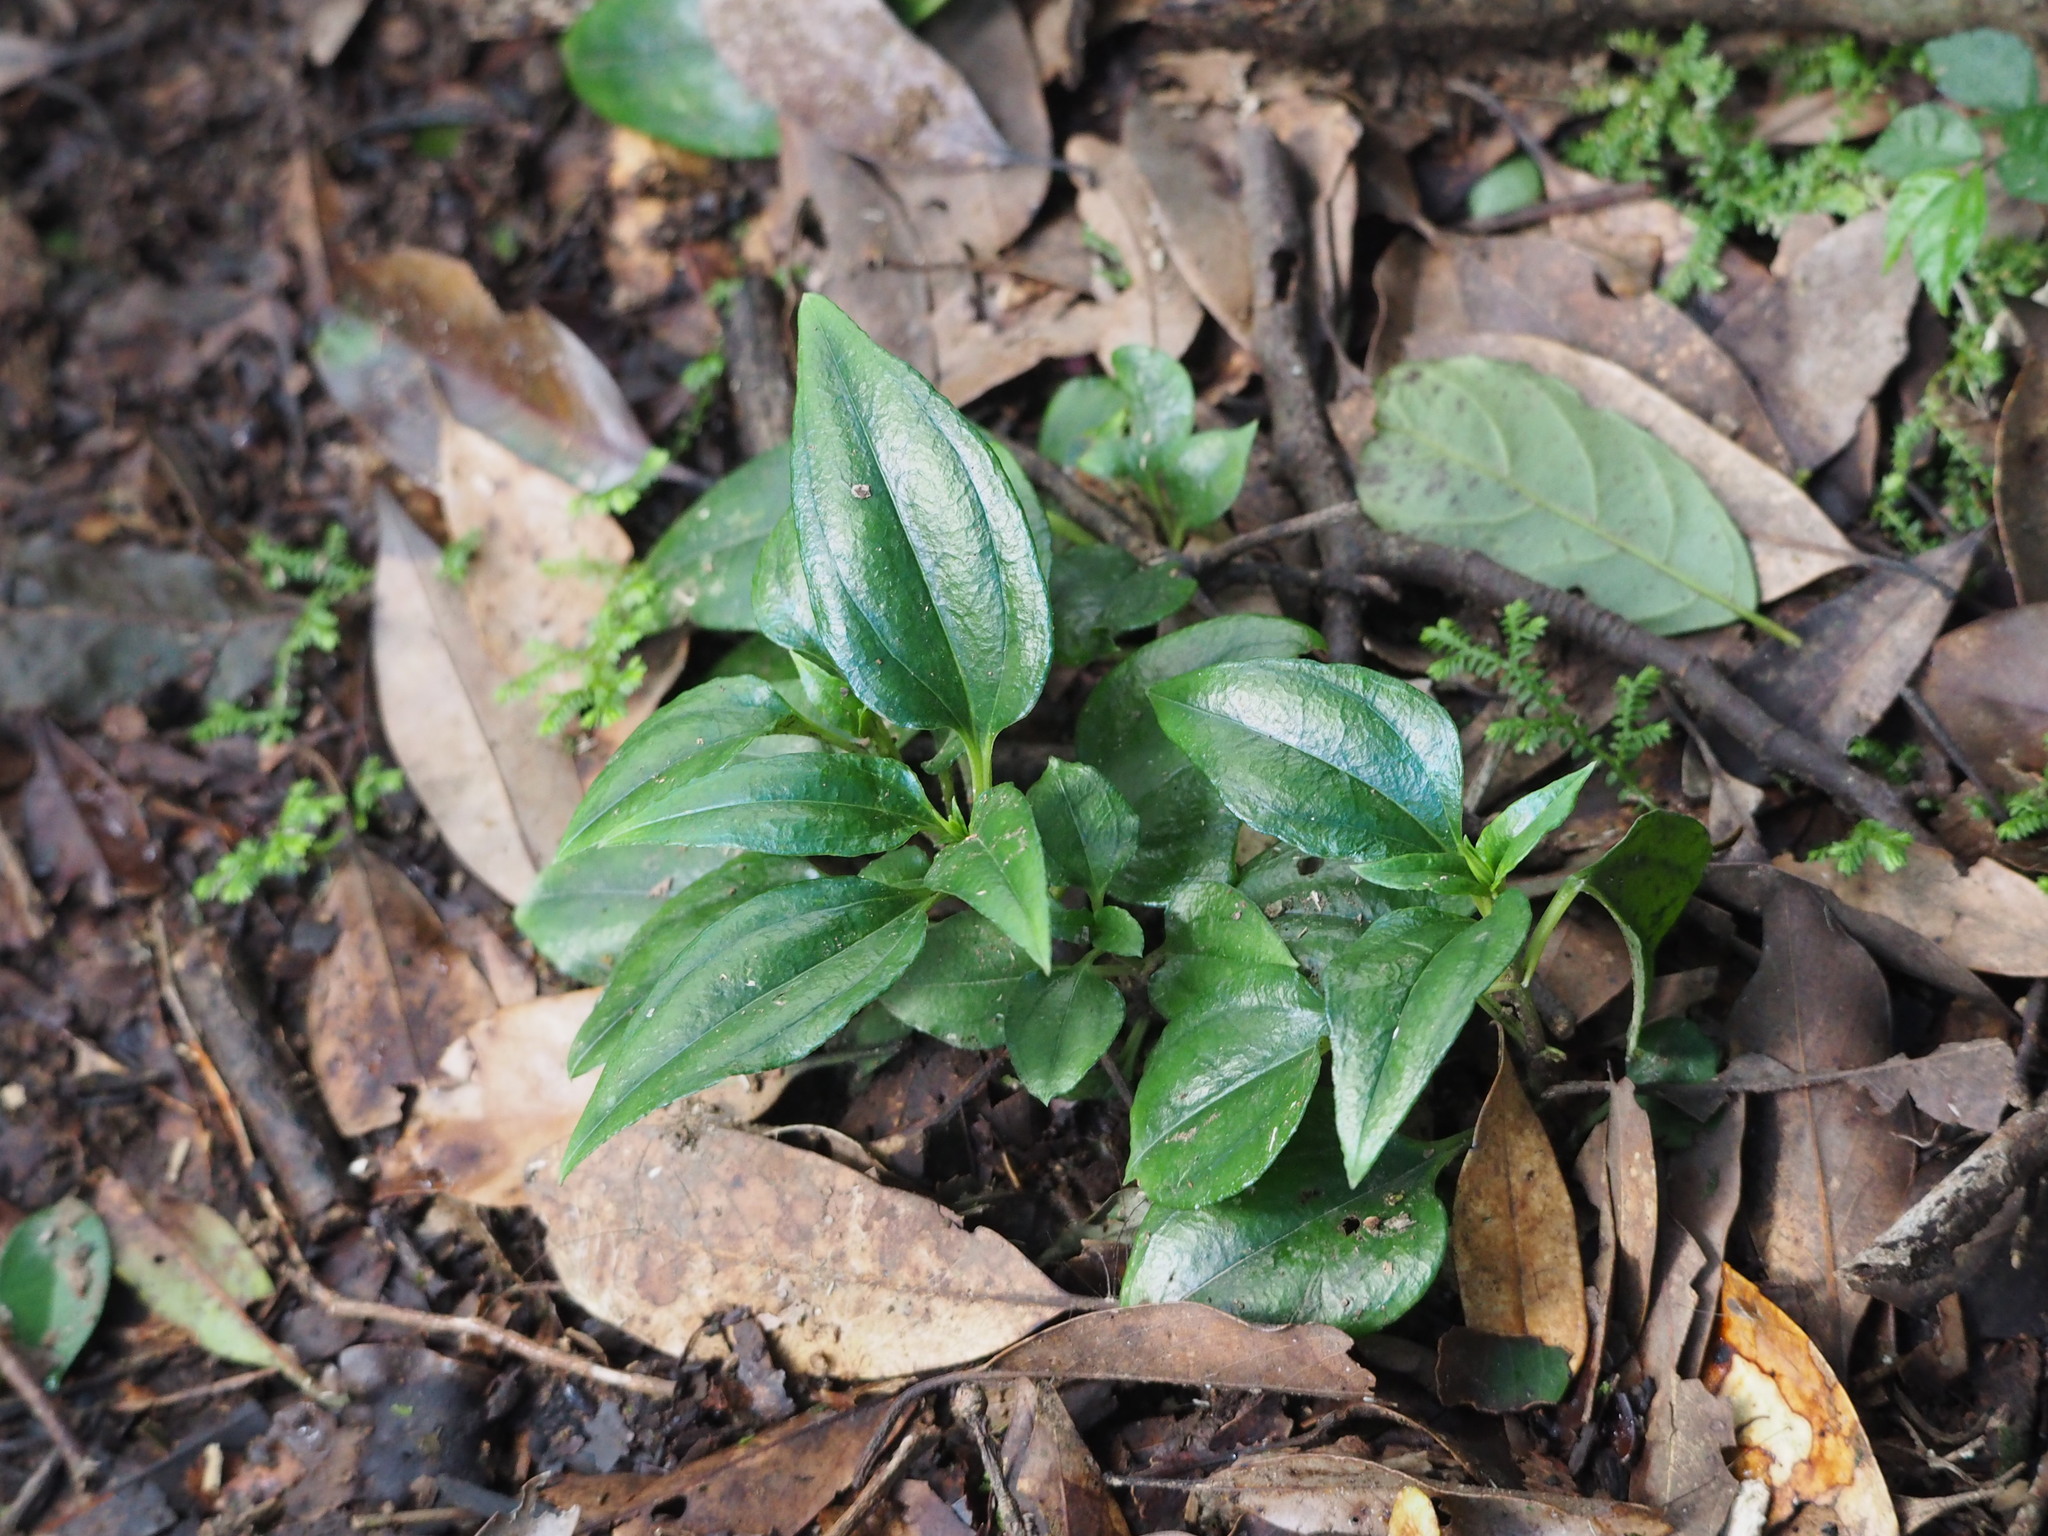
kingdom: Plantae
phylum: Tracheophyta
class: Magnoliopsida
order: Gentianales
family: Gentianaceae
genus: Tripterospermum
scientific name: Tripterospermum alutaceifolium
